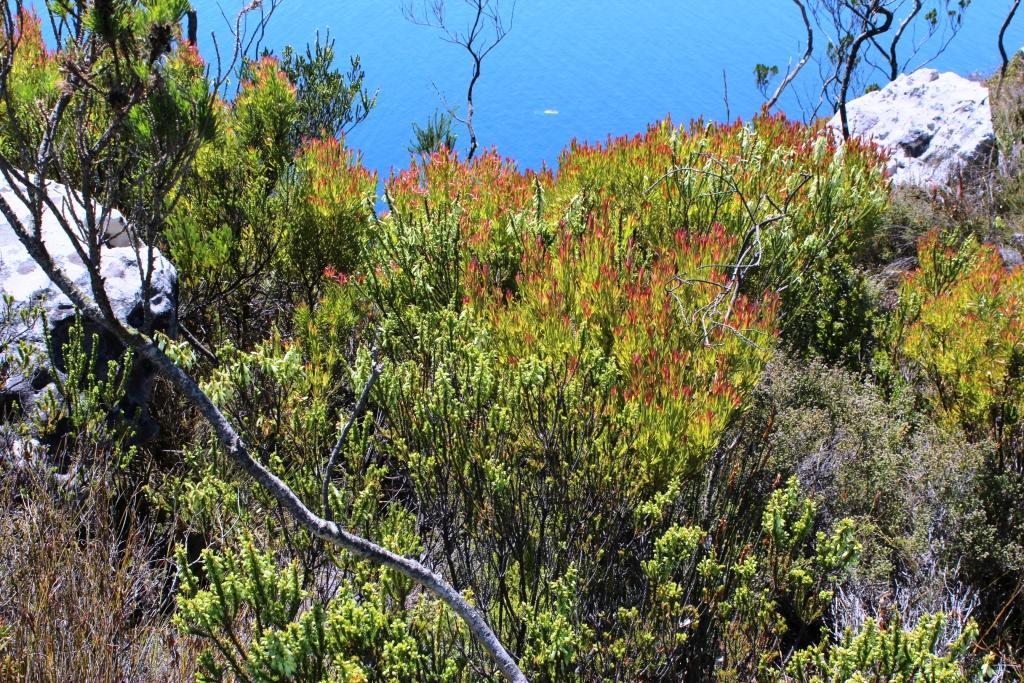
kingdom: Plantae
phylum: Tracheophyta
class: Magnoliopsida
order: Proteales
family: Proteaceae
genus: Leucadendron
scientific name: Leucadendron xanthoconus
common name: Sickle-leaf conebush
